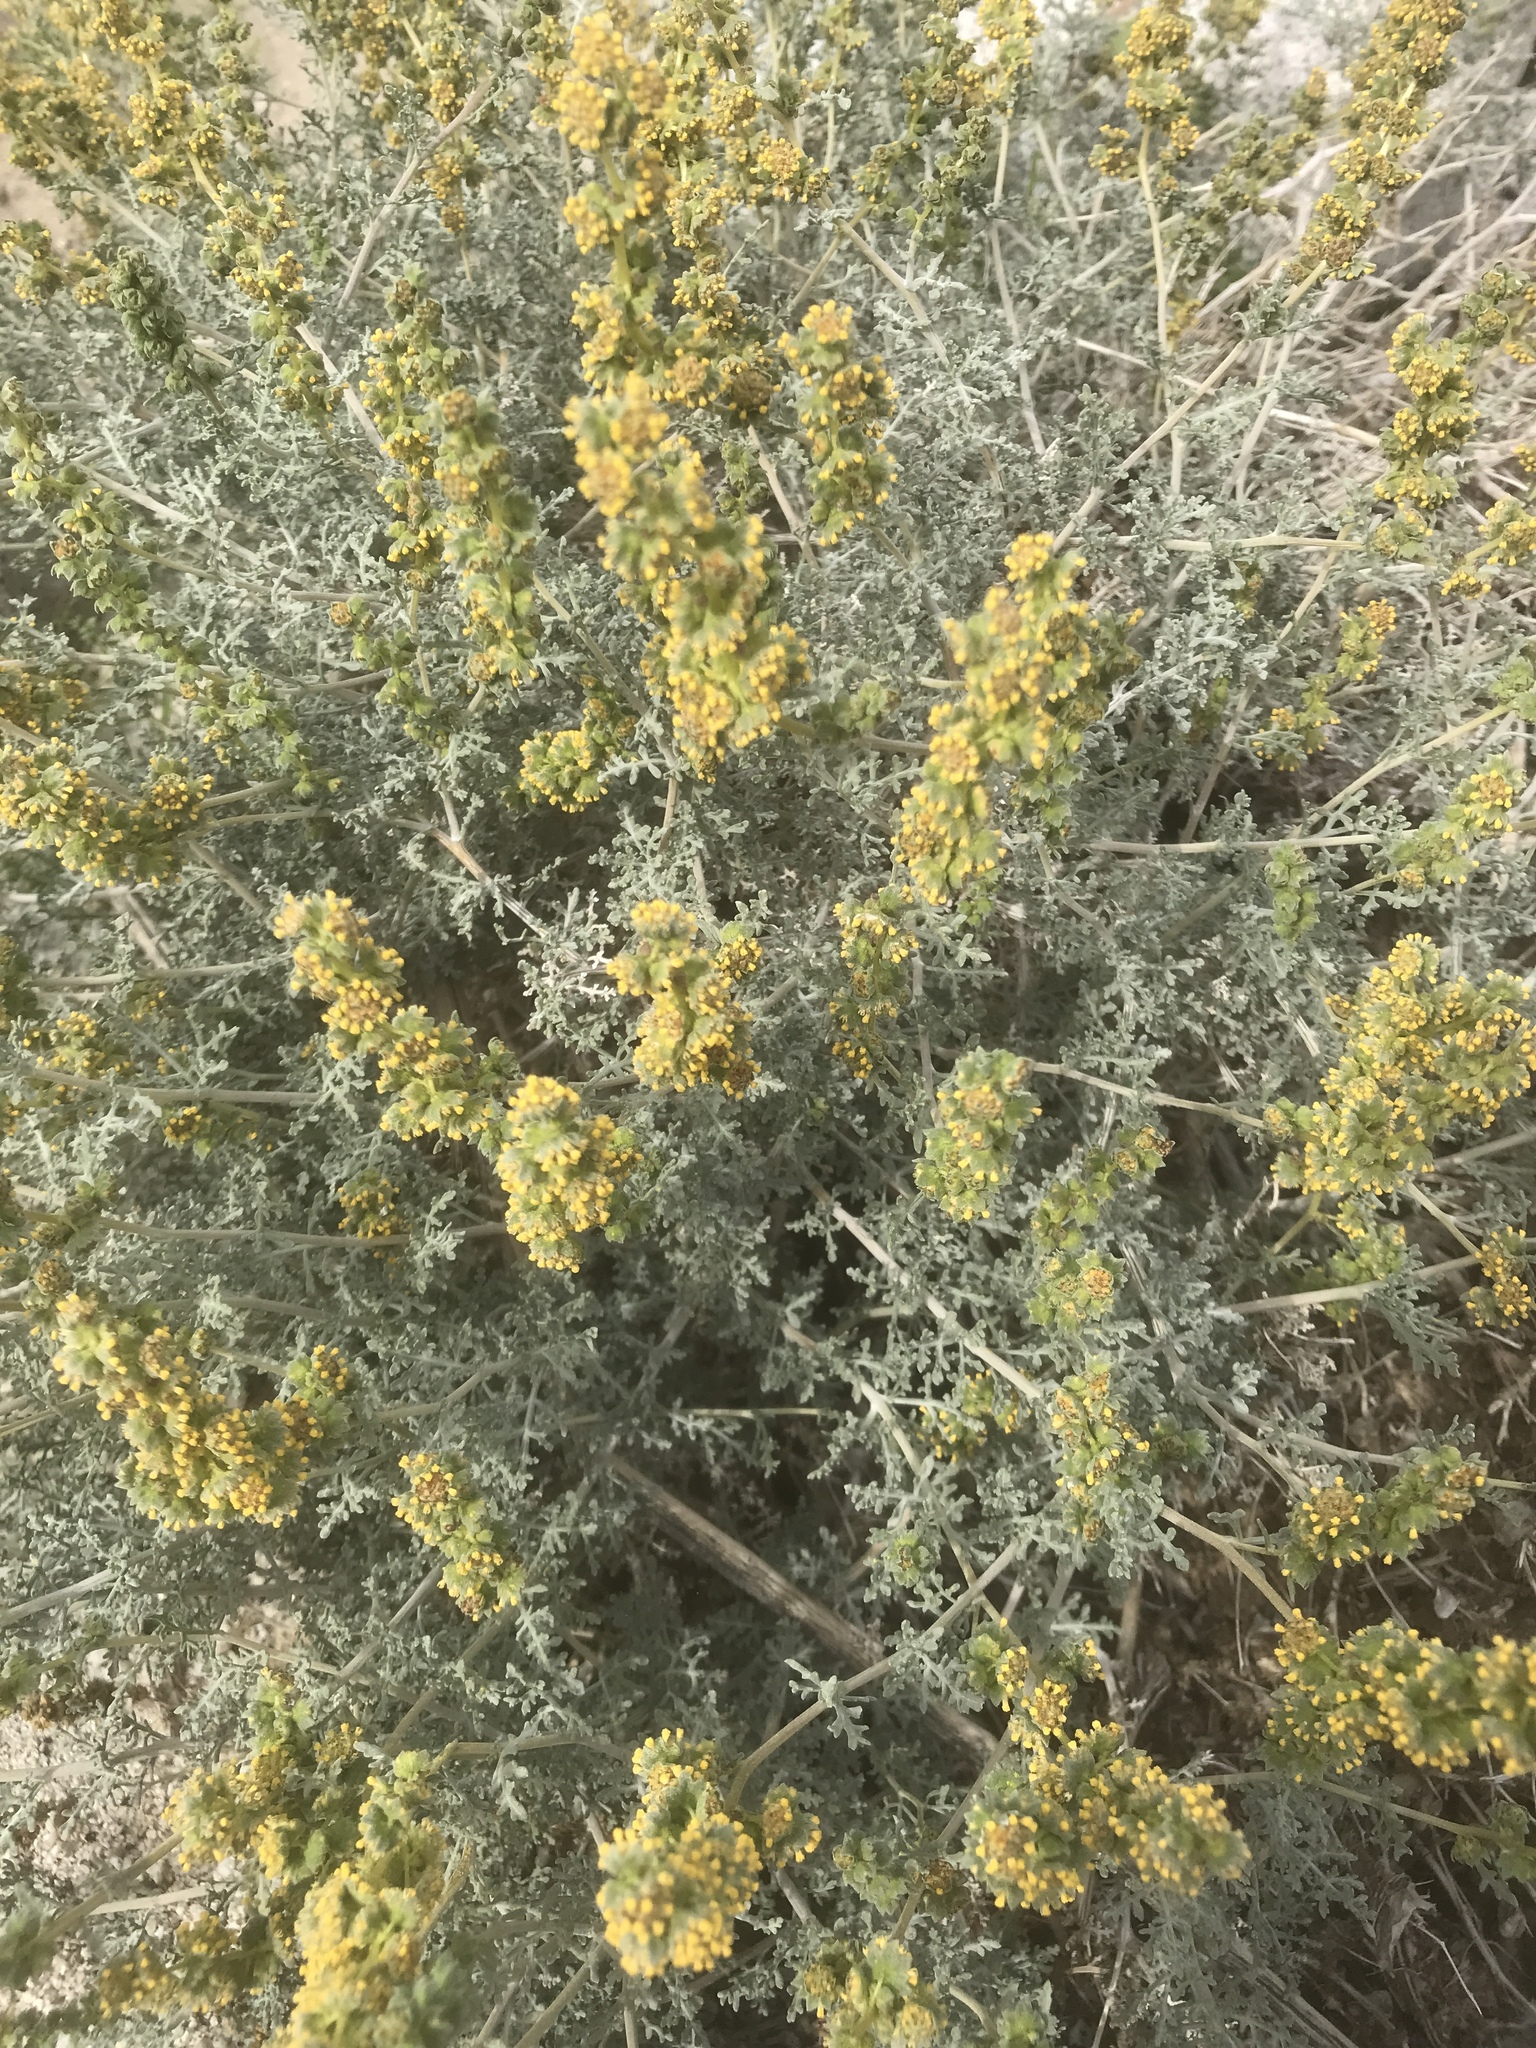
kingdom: Plantae
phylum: Tracheophyta
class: Magnoliopsida
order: Asterales
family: Asteraceae
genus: Ambrosia
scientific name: Ambrosia dumosa
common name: Bur-sage
